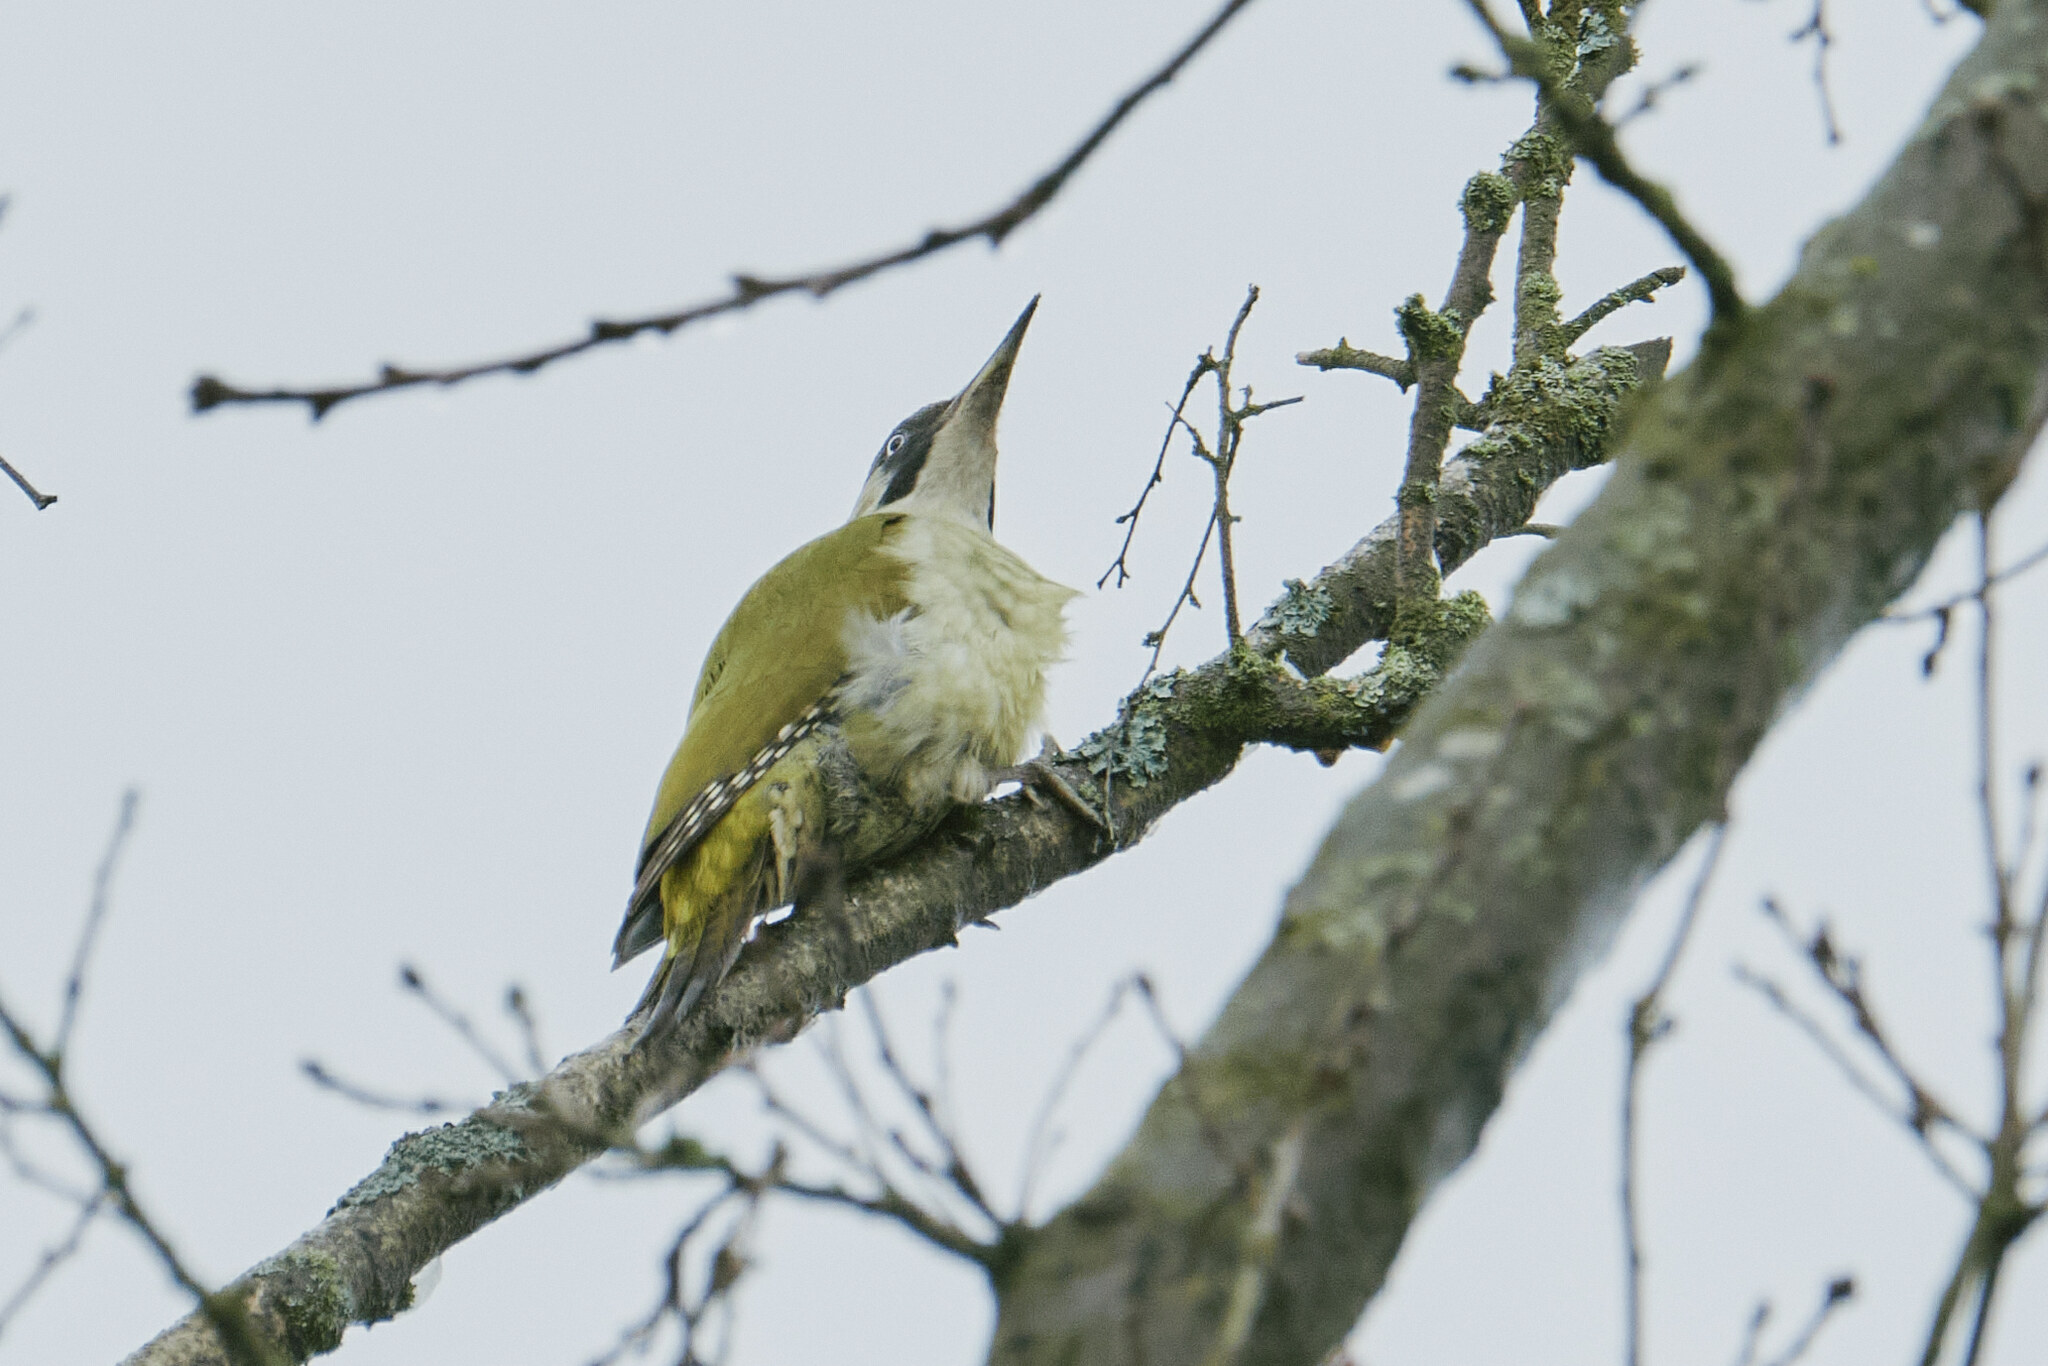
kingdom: Animalia
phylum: Chordata
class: Aves
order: Piciformes
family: Picidae
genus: Picus
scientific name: Picus viridis
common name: European green woodpecker
